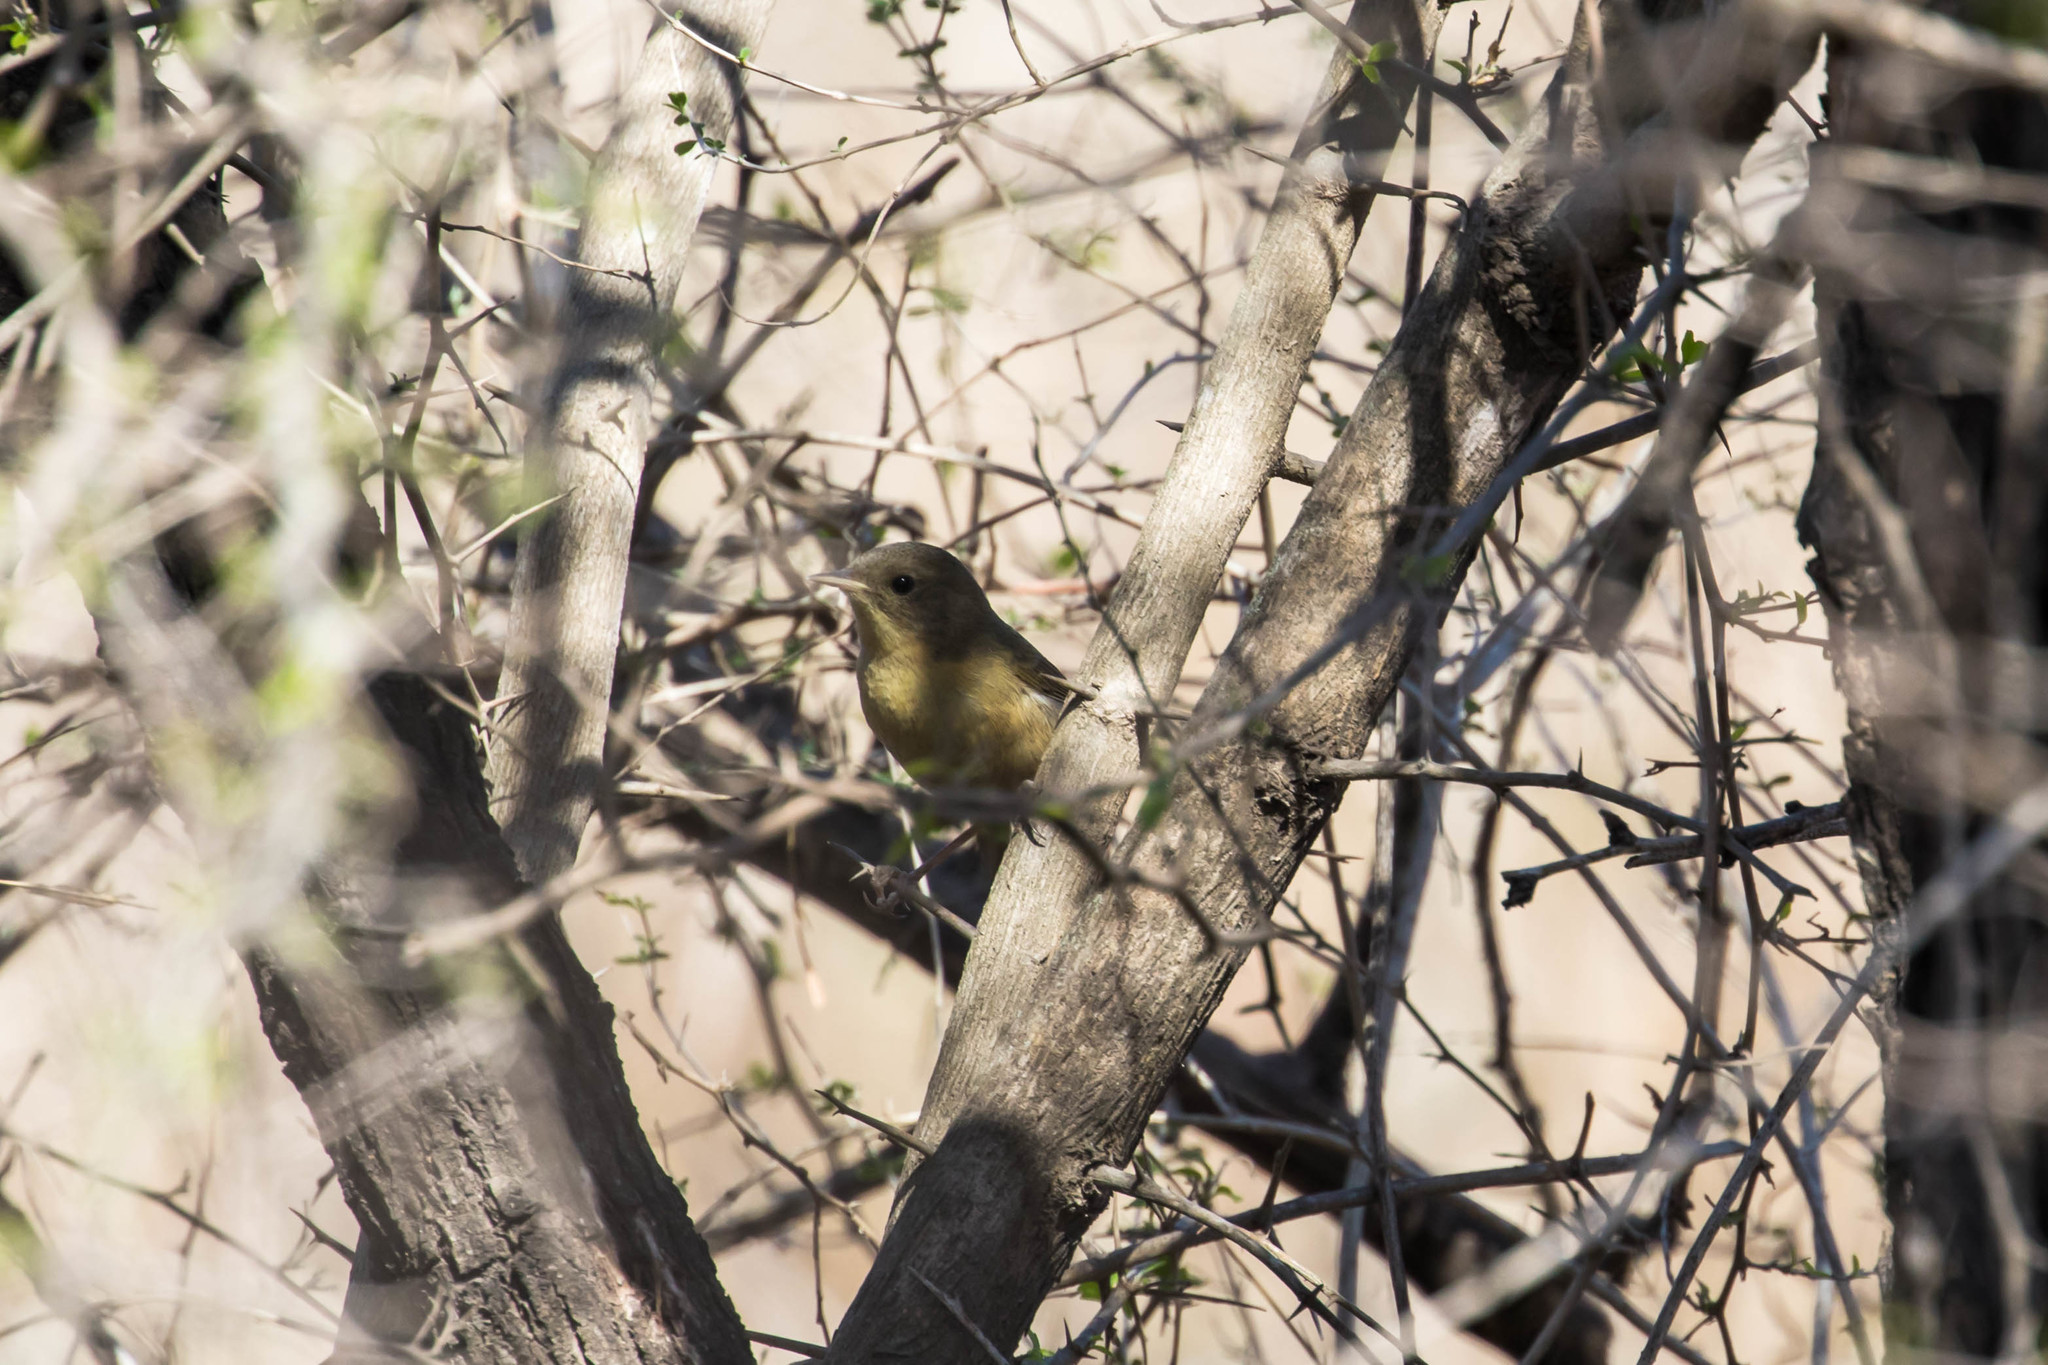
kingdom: Animalia
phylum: Chordata
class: Aves
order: Passeriformes
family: Parulidae
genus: Geothlypis
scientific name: Geothlypis trichas
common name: Common yellowthroat
